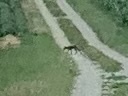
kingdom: Animalia
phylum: Chordata
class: Mammalia
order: Carnivora
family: Canidae
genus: Vulpes
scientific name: Vulpes vulpes
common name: Red fox
